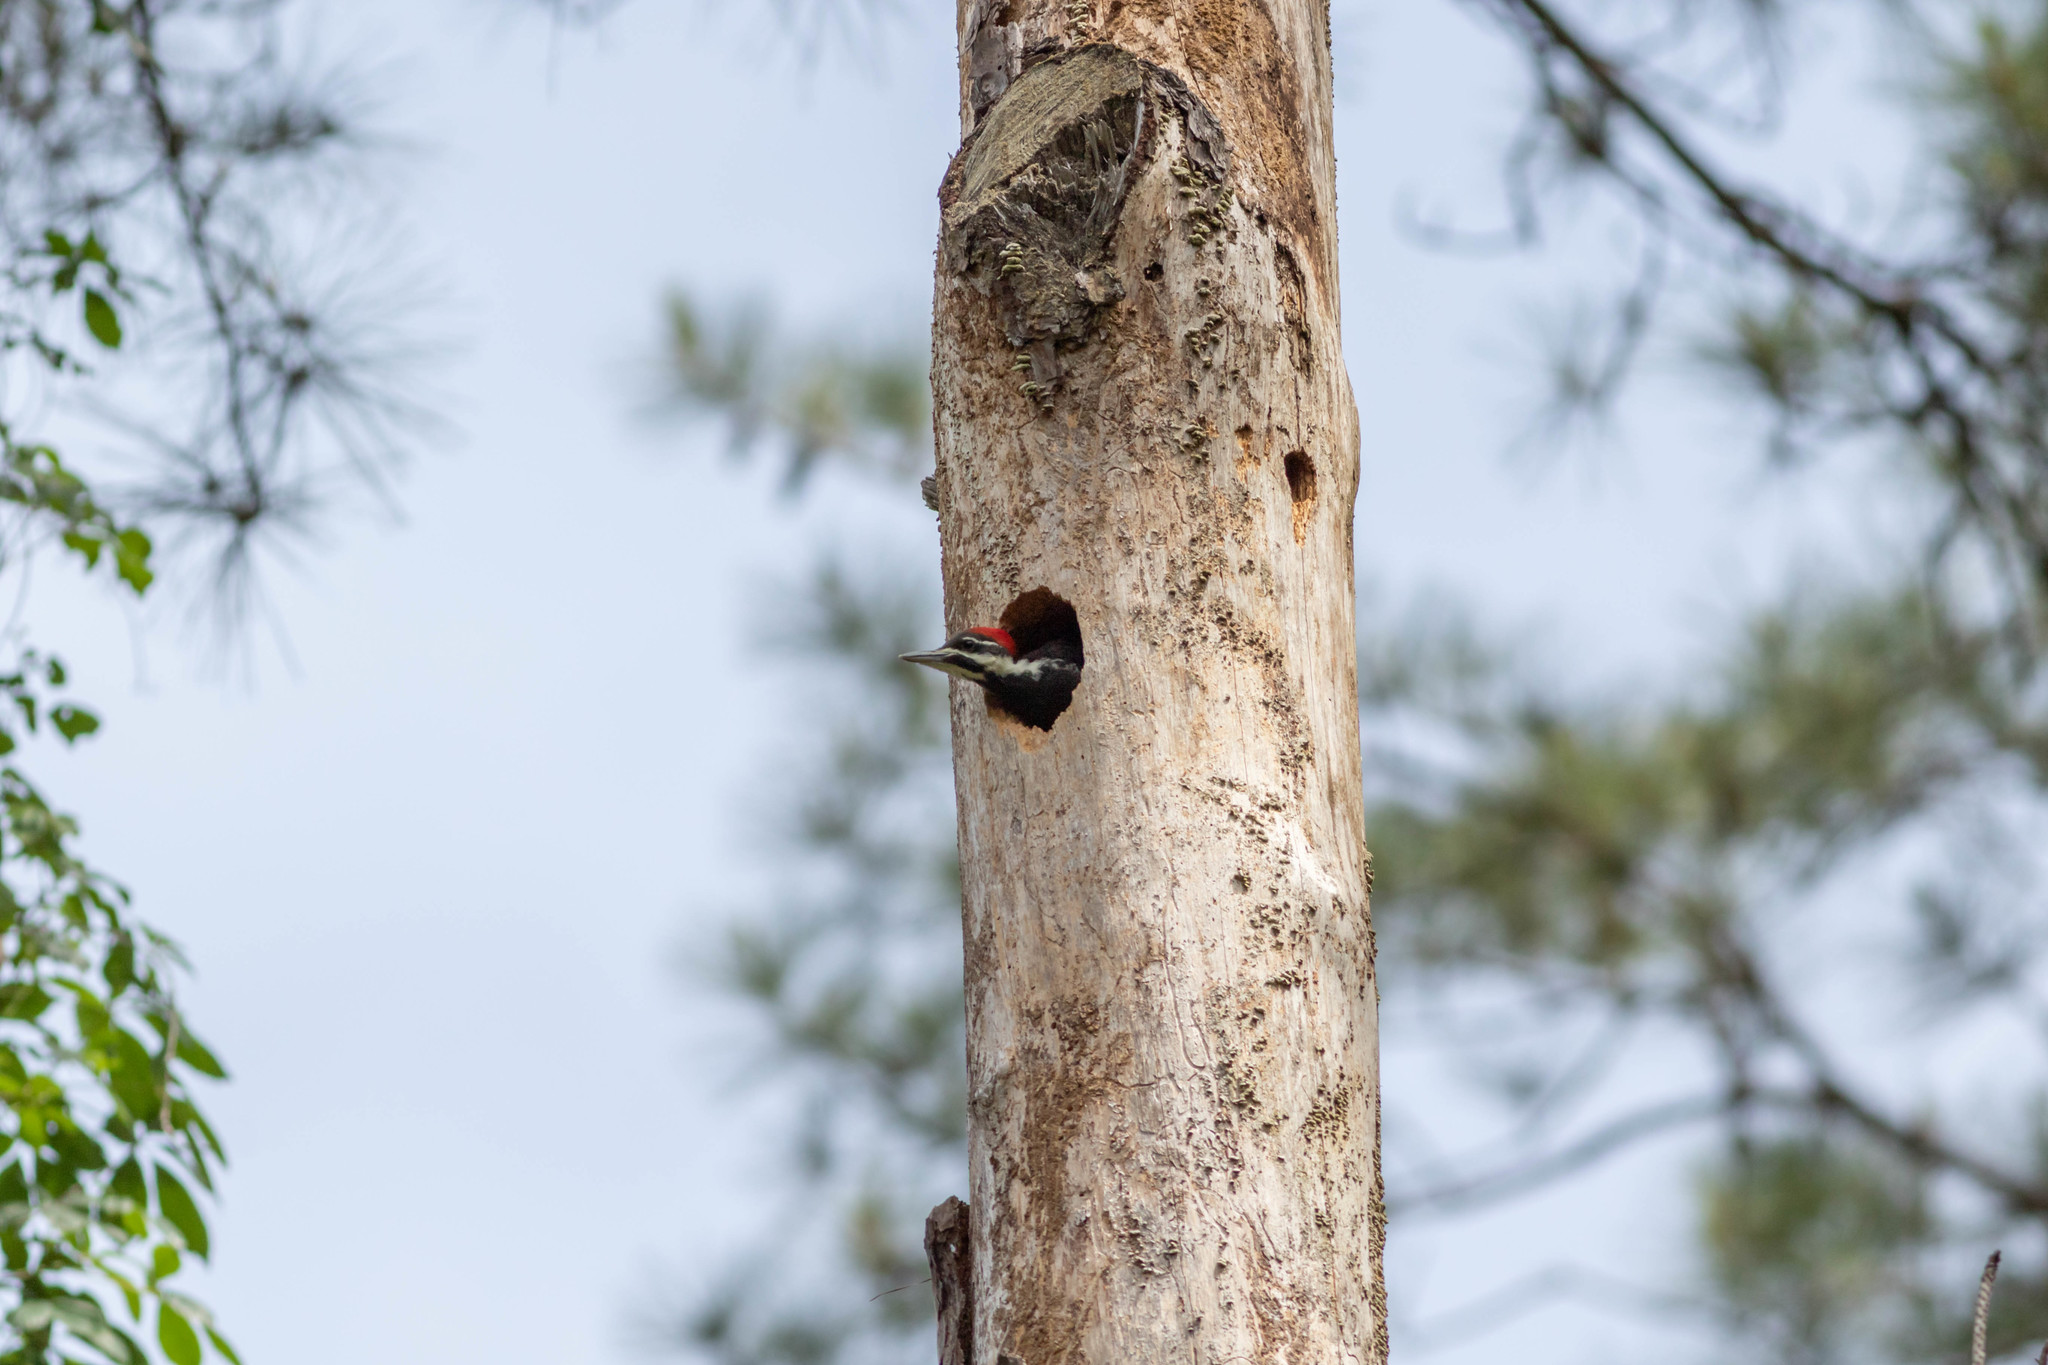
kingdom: Animalia
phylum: Chordata
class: Aves
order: Piciformes
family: Picidae
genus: Dryocopus
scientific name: Dryocopus pileatus
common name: Pileated woodpecker
